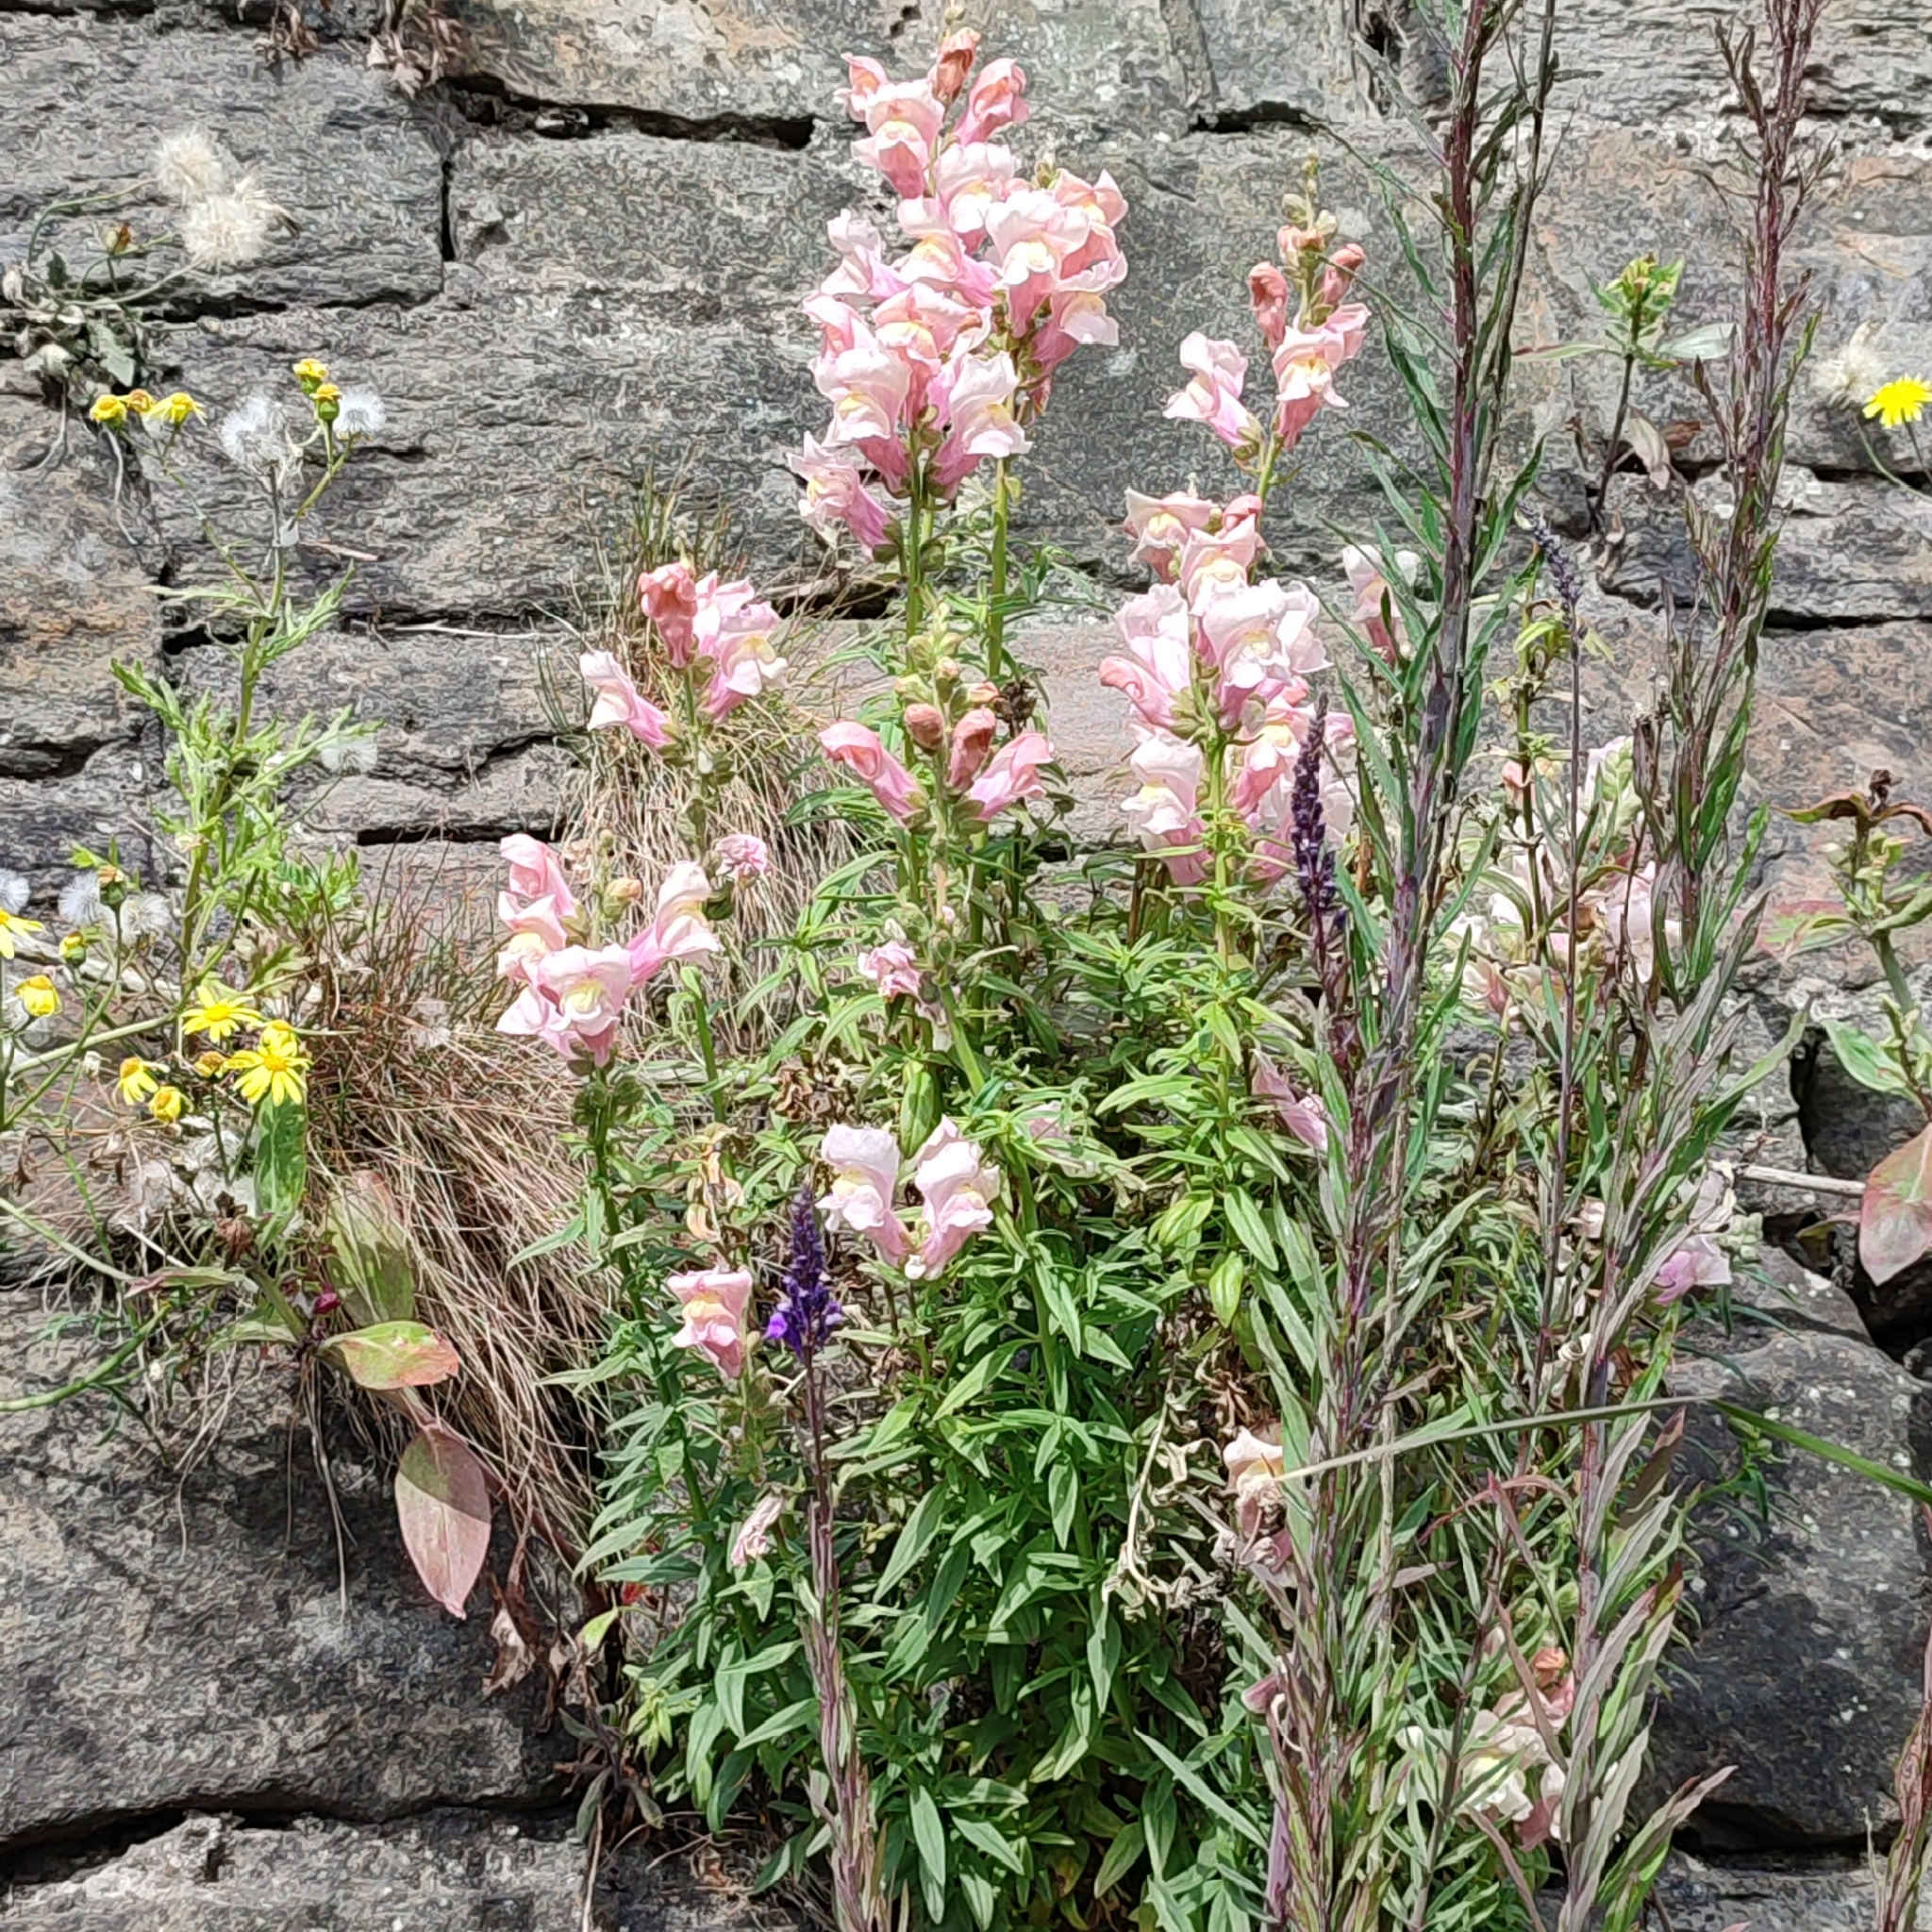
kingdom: Plantae
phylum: Tracheophyta
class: Magnoliopsida
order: Lamiales
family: Plantaginaceae
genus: Antirrhinum
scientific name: Antirrhinum majus
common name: Snapdragon
